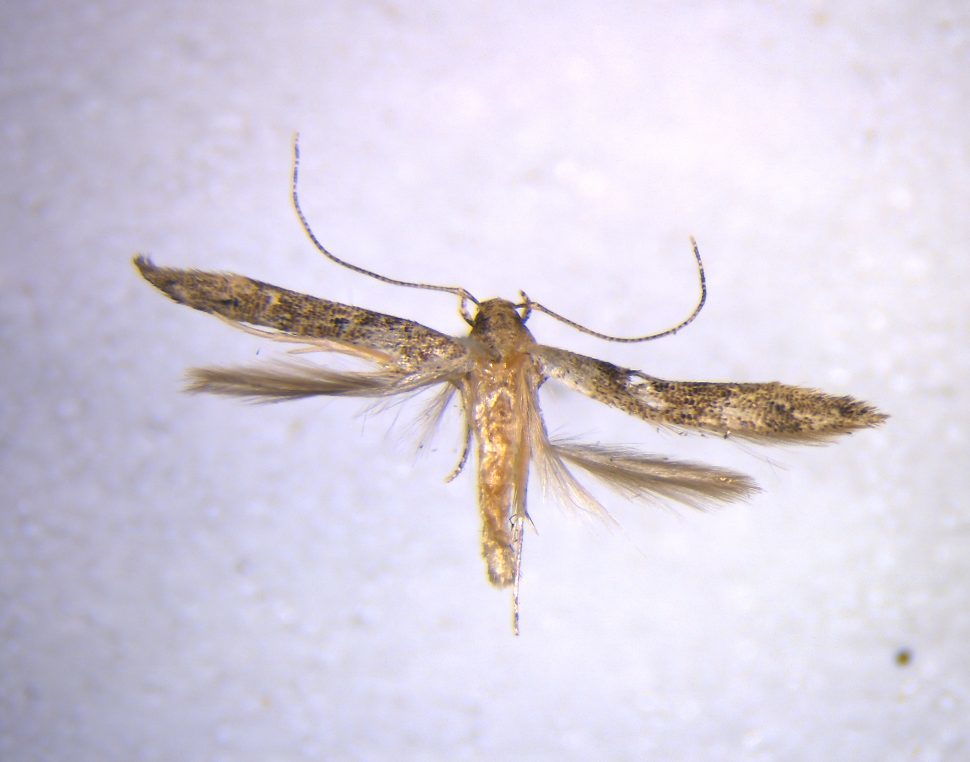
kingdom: Animalia
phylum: Arthropoda
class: Insecta
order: Lepidoptera
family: Elachistidae
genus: Microcolona
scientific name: Microcolona limodes
